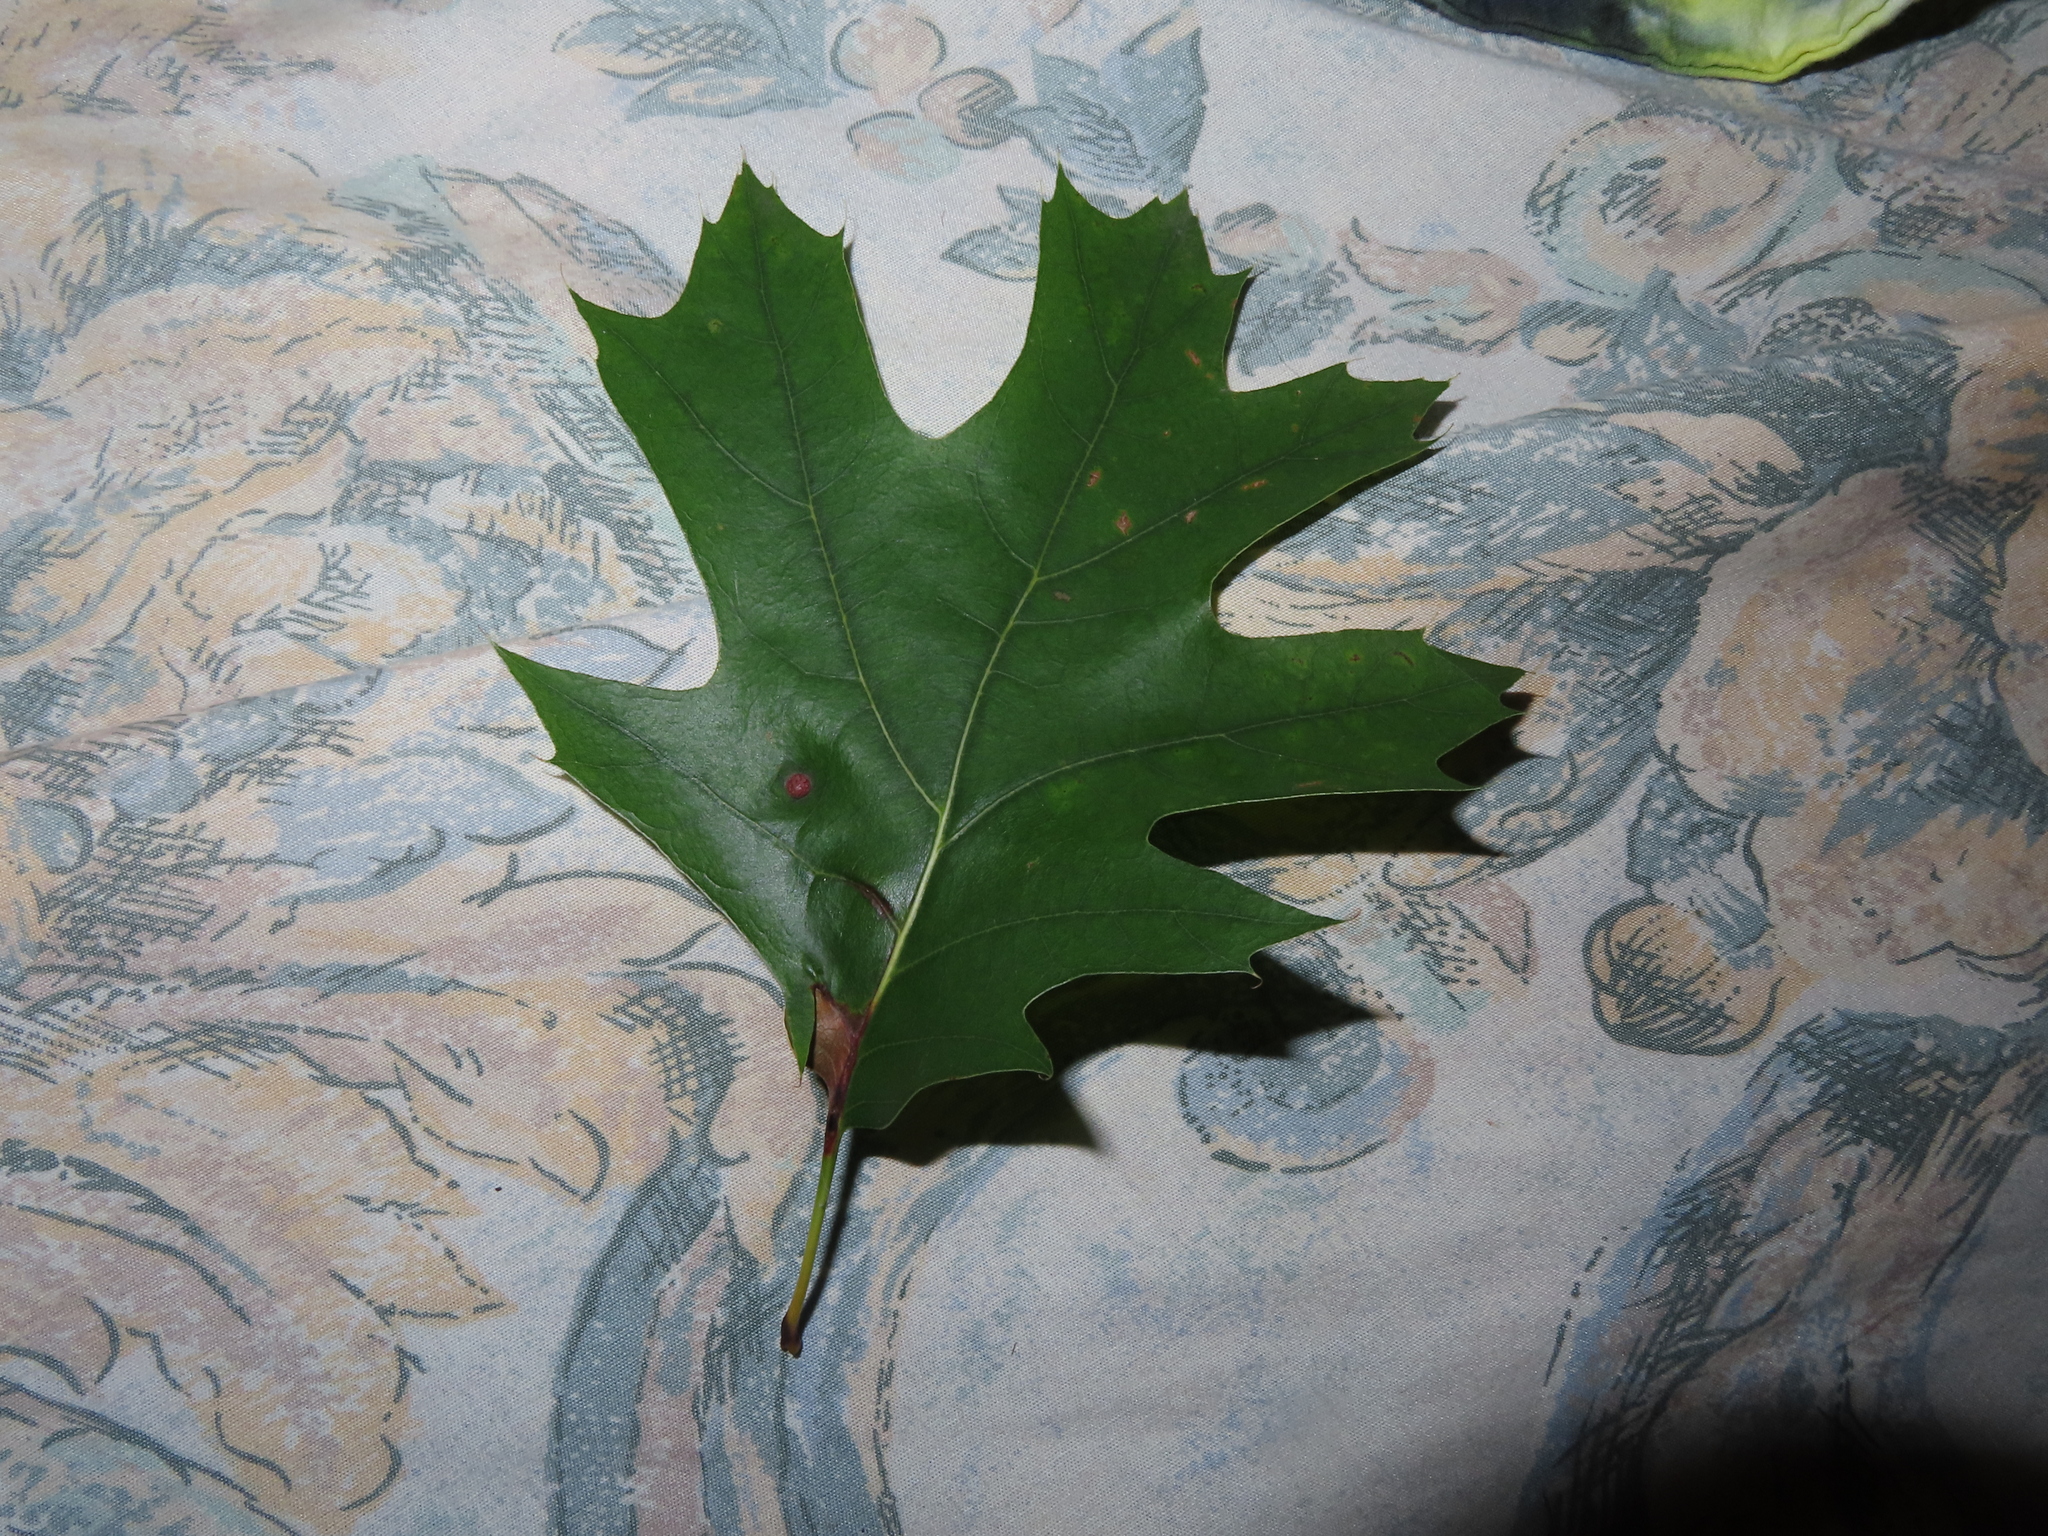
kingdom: Animalia
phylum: Arthropoda
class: Insecta
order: Diptera
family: Cecidomyiidae
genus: Polystepha
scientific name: Polystepha pilulae
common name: Oak leaf gall midge
